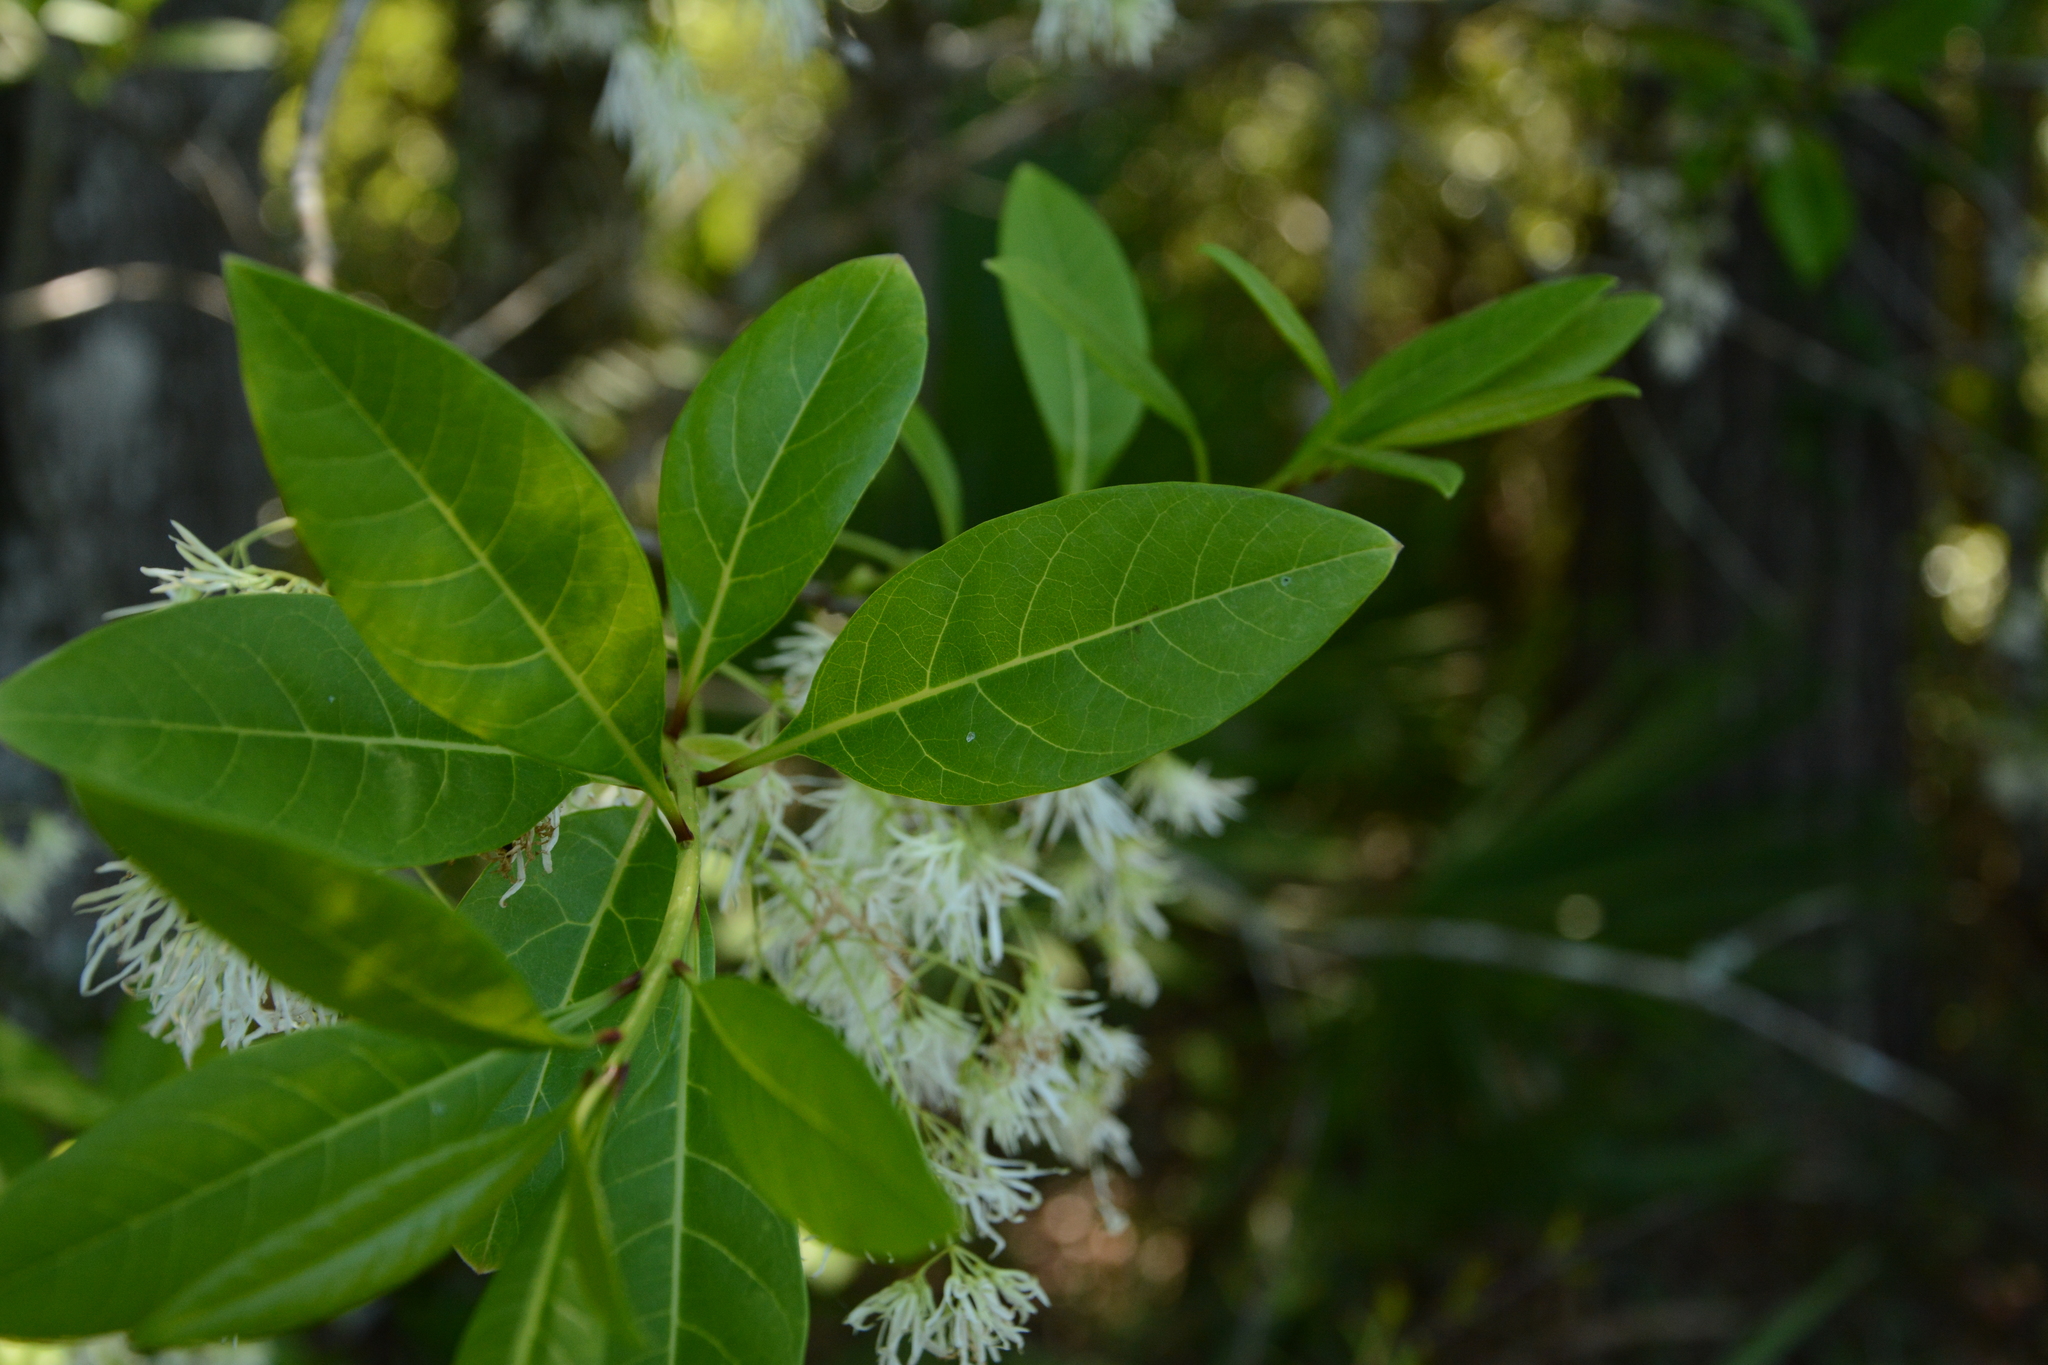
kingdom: Plantae
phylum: Tracheophyta
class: Magnoliopsida
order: Lamiales
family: Oleaceae
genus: Chionanthus
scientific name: Chionanthus virginicus
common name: American fringetree
